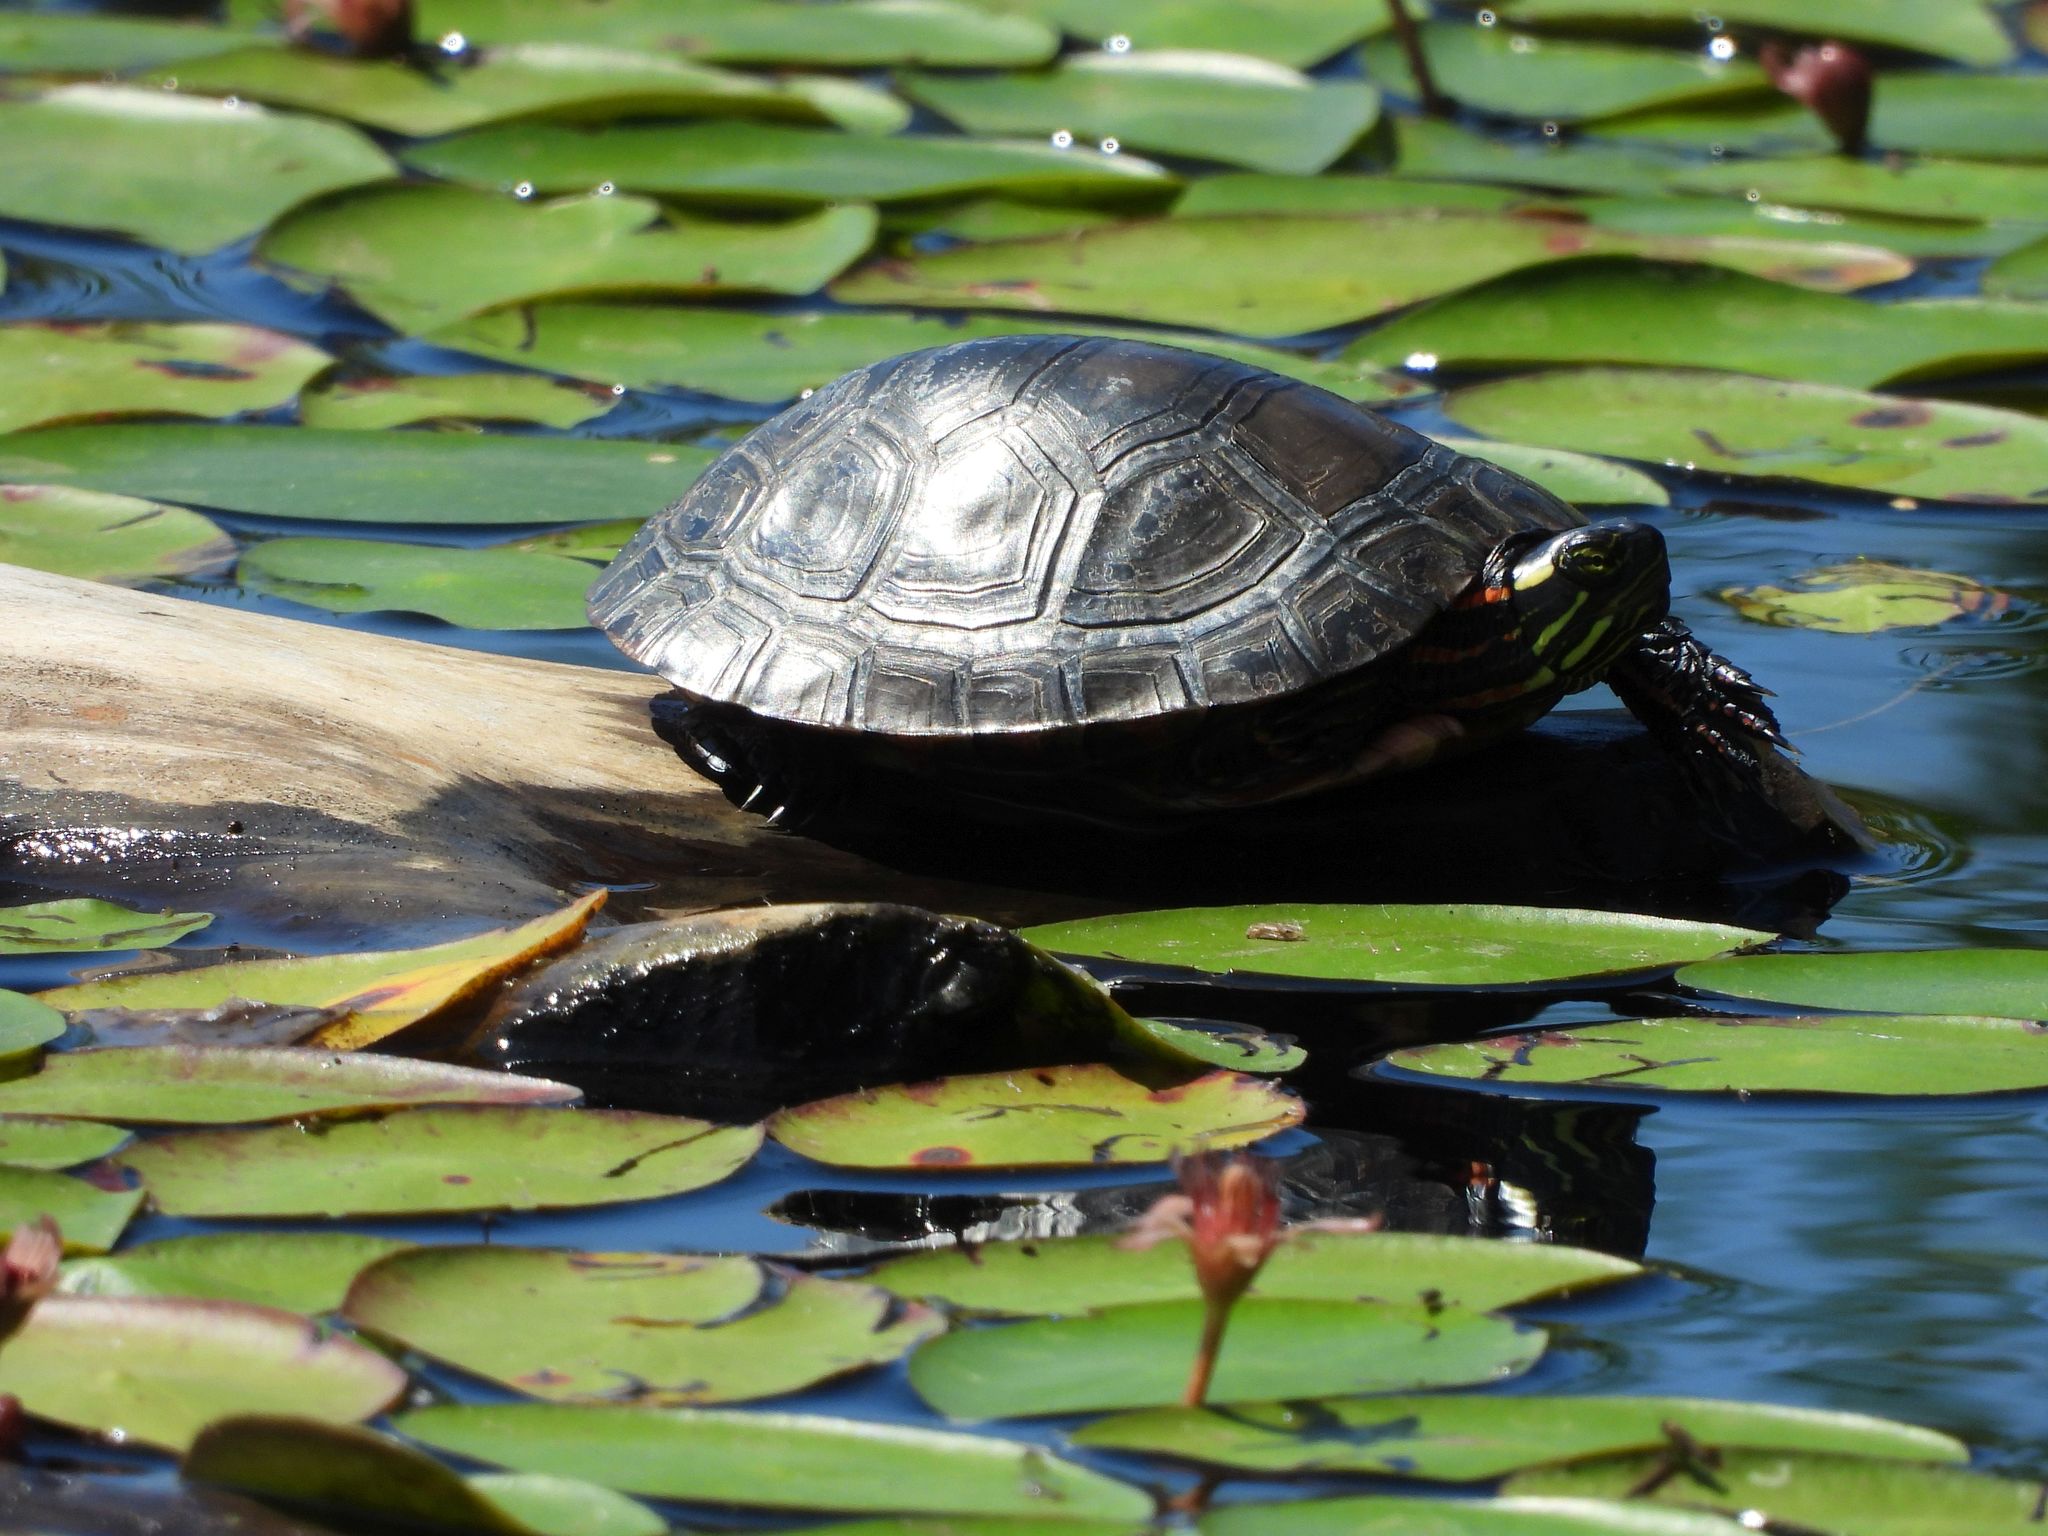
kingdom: Animalia
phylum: Chordata
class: Testudines
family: Emydidae
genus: Chrysemys
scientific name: Chrysemys picta
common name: Painted turtle
